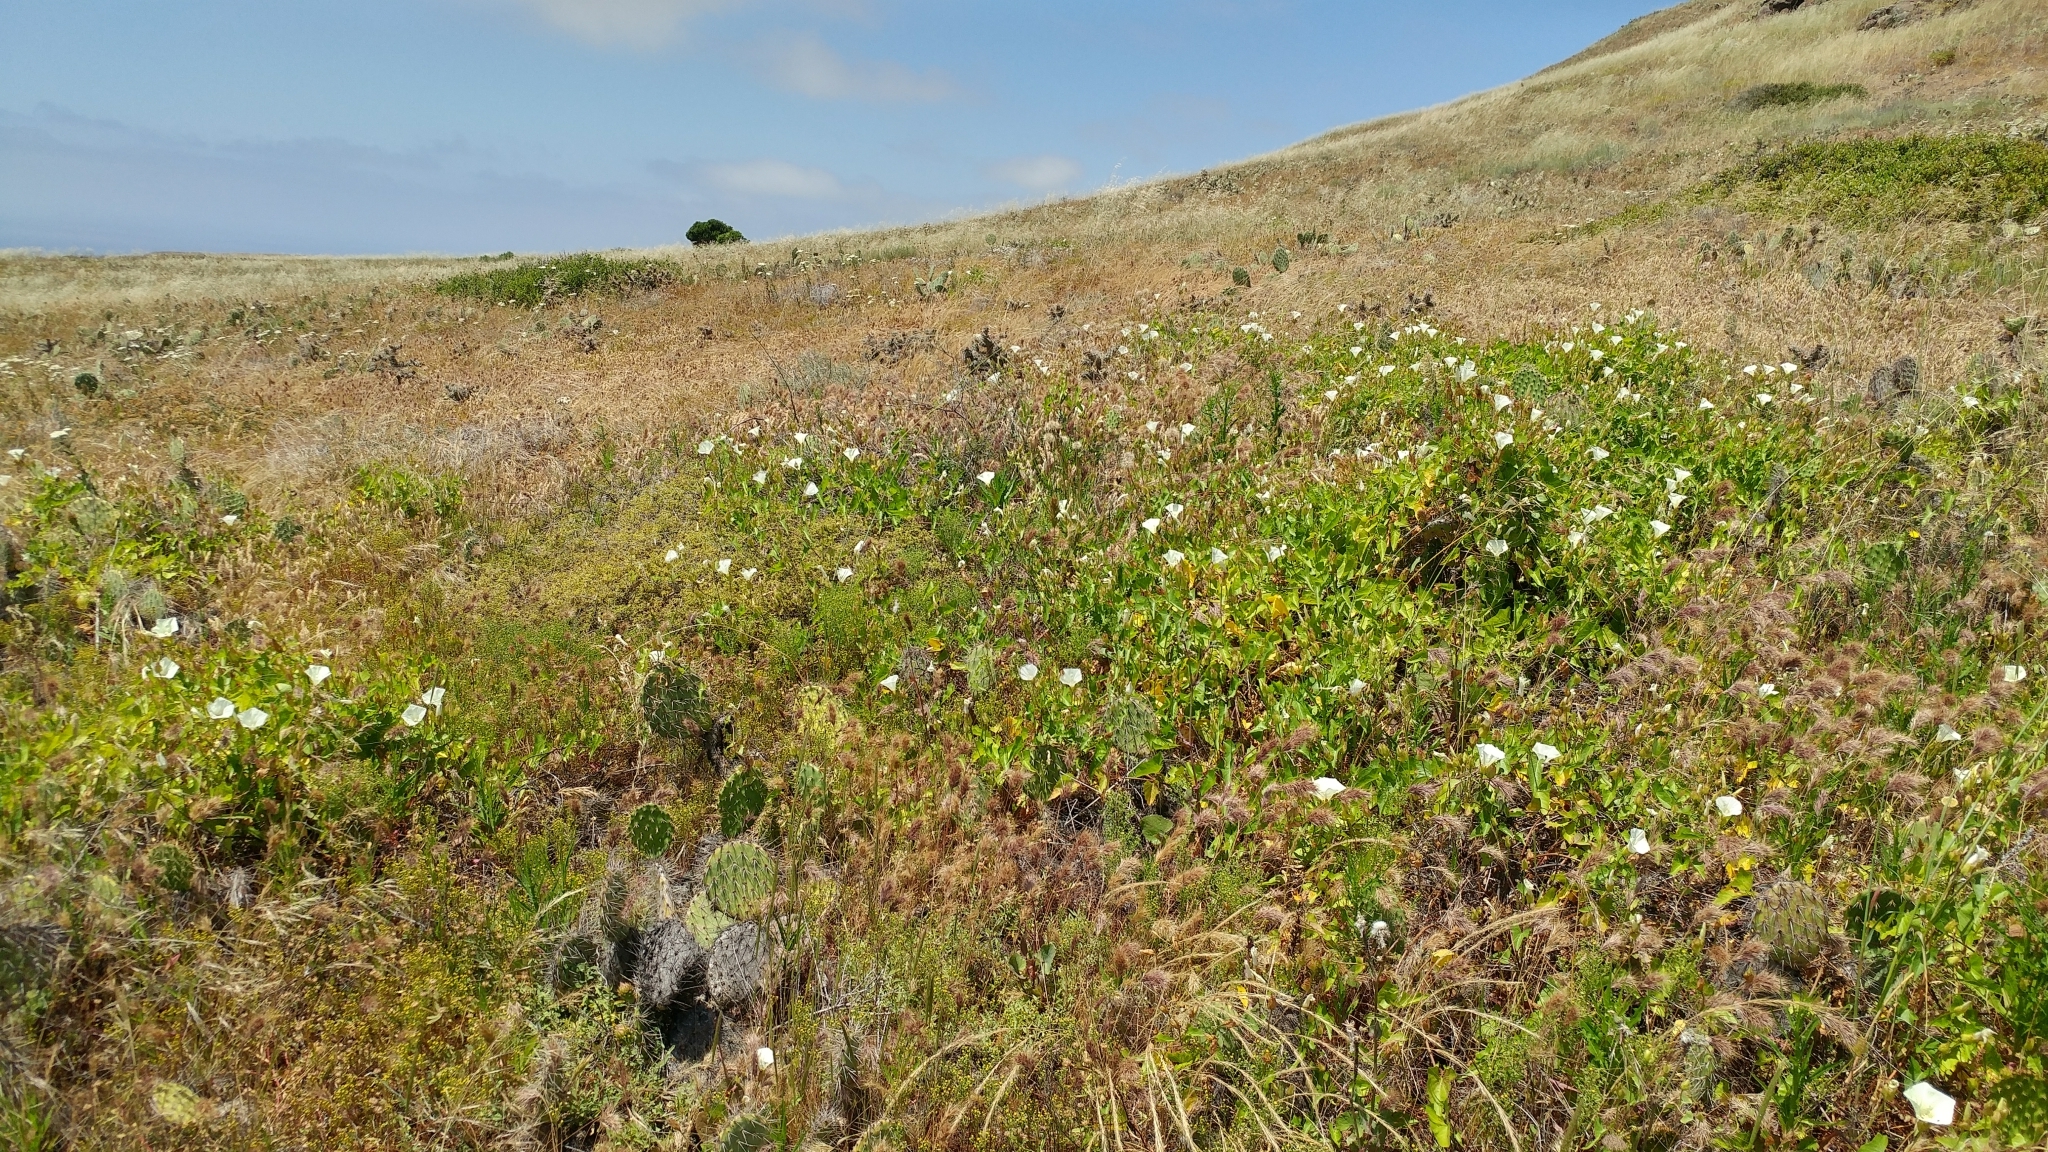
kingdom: Plantae
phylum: Tracheophyta
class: Magnoliopsida
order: Solanales
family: Convolvulaceae
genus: Calystegia
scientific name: Calystegia macrostegia
